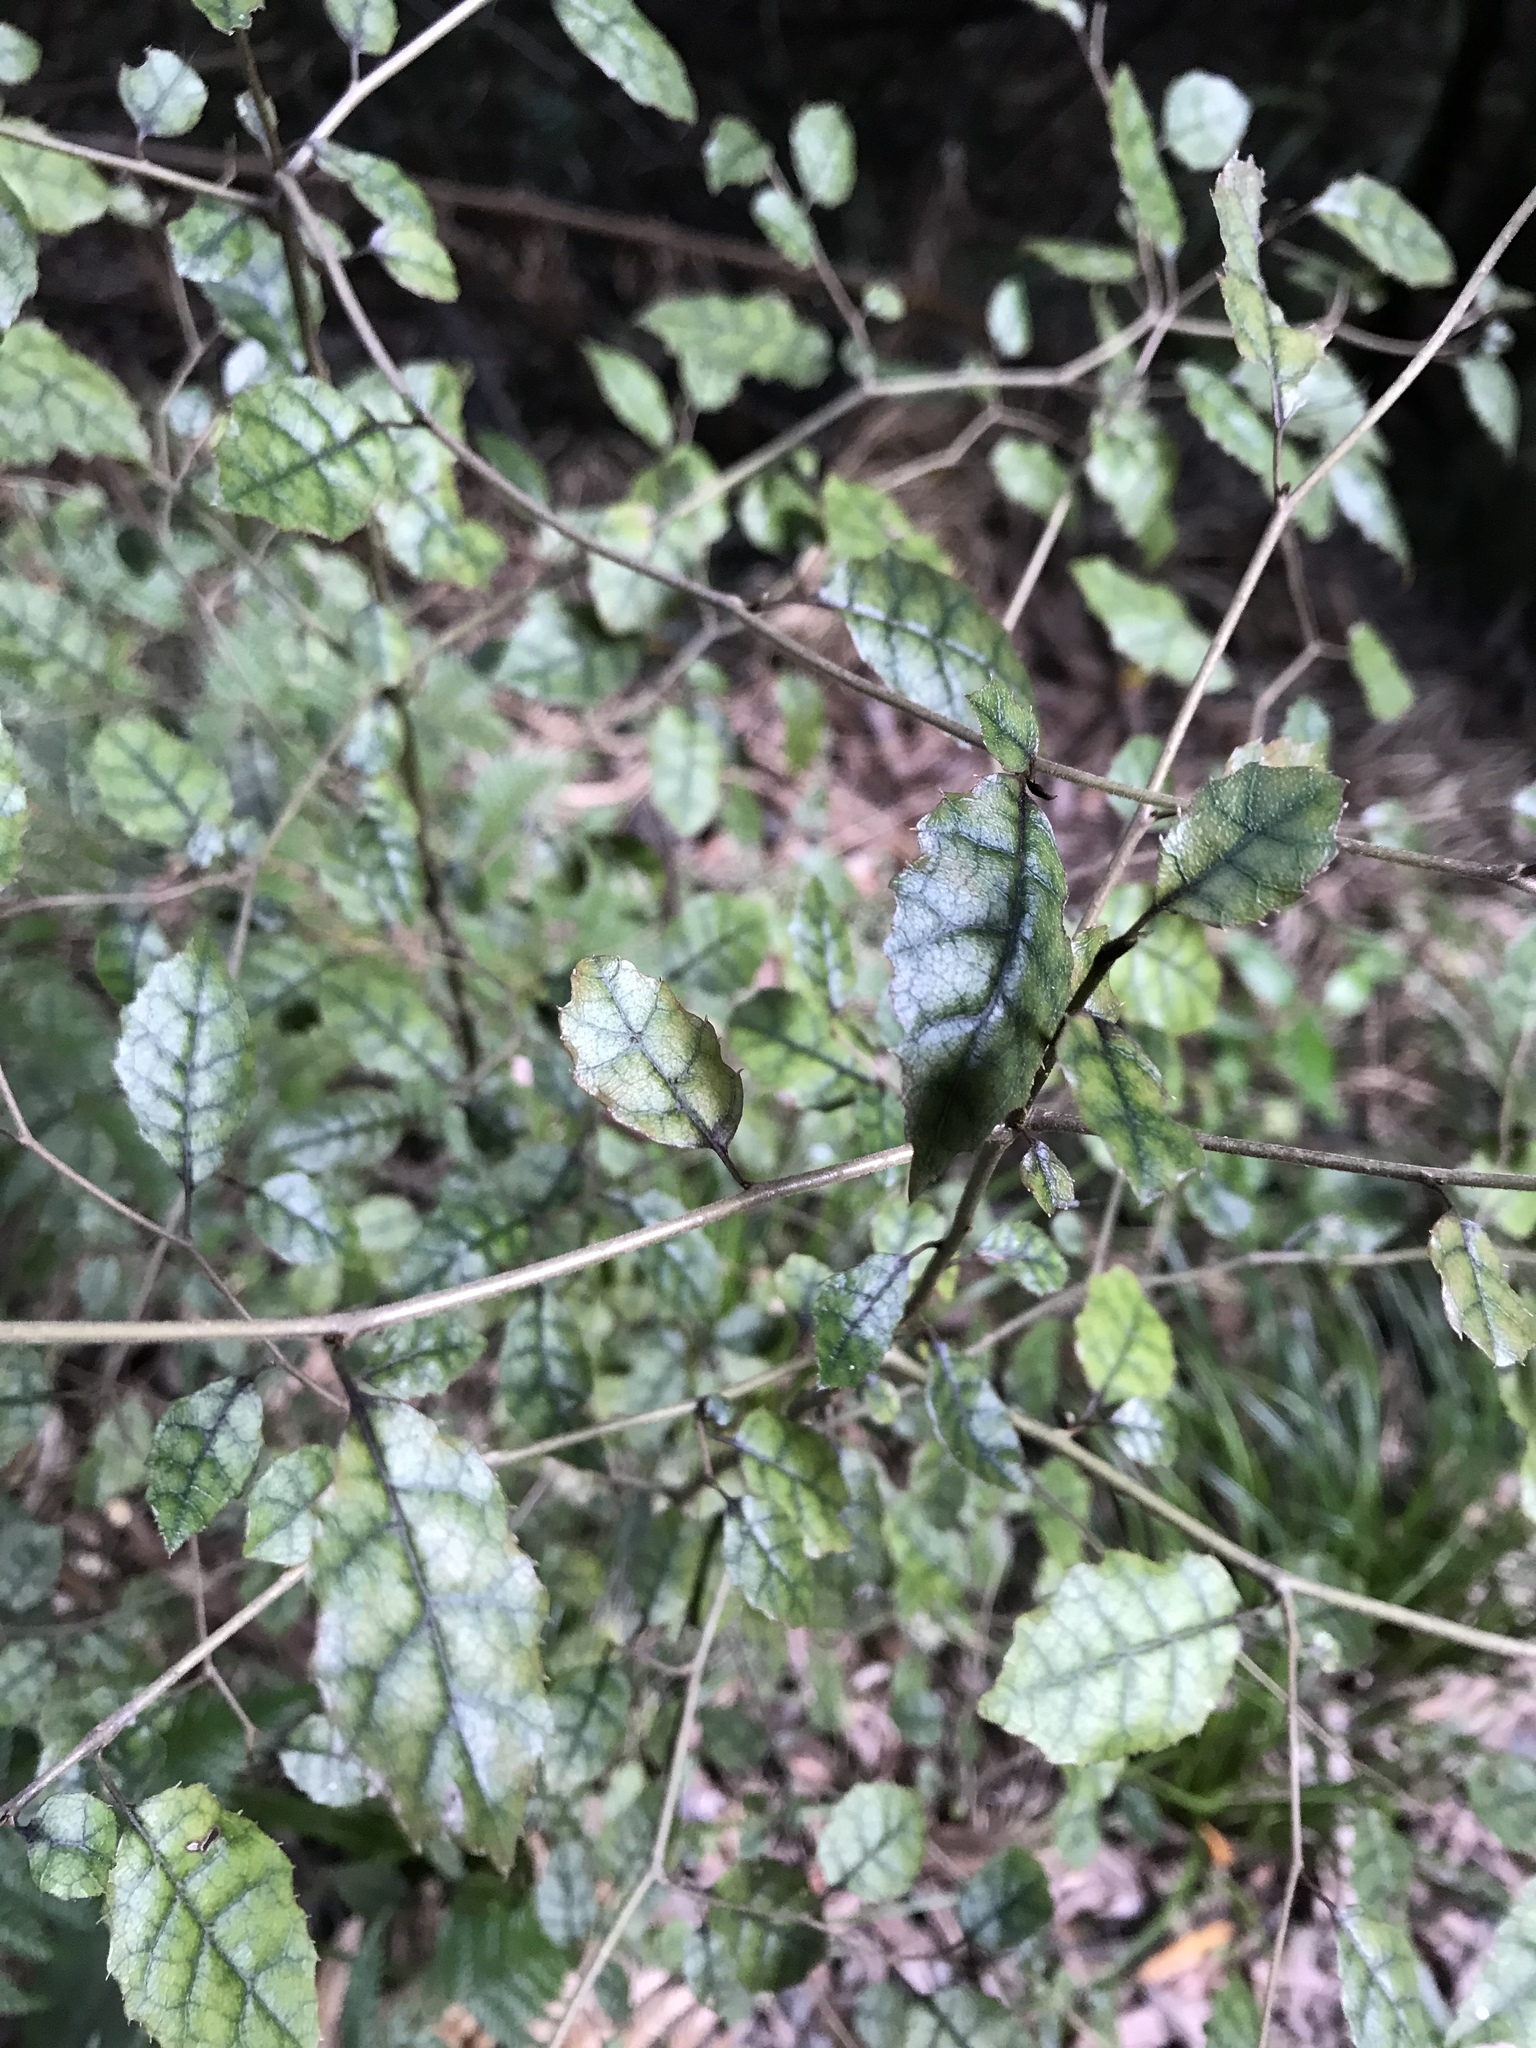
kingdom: Plantae
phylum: Tracheophyta
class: Magnoliopsida
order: Asterales
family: Rousseaceae
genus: Carpodetus
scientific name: Carpodetus serratus
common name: White mapau
